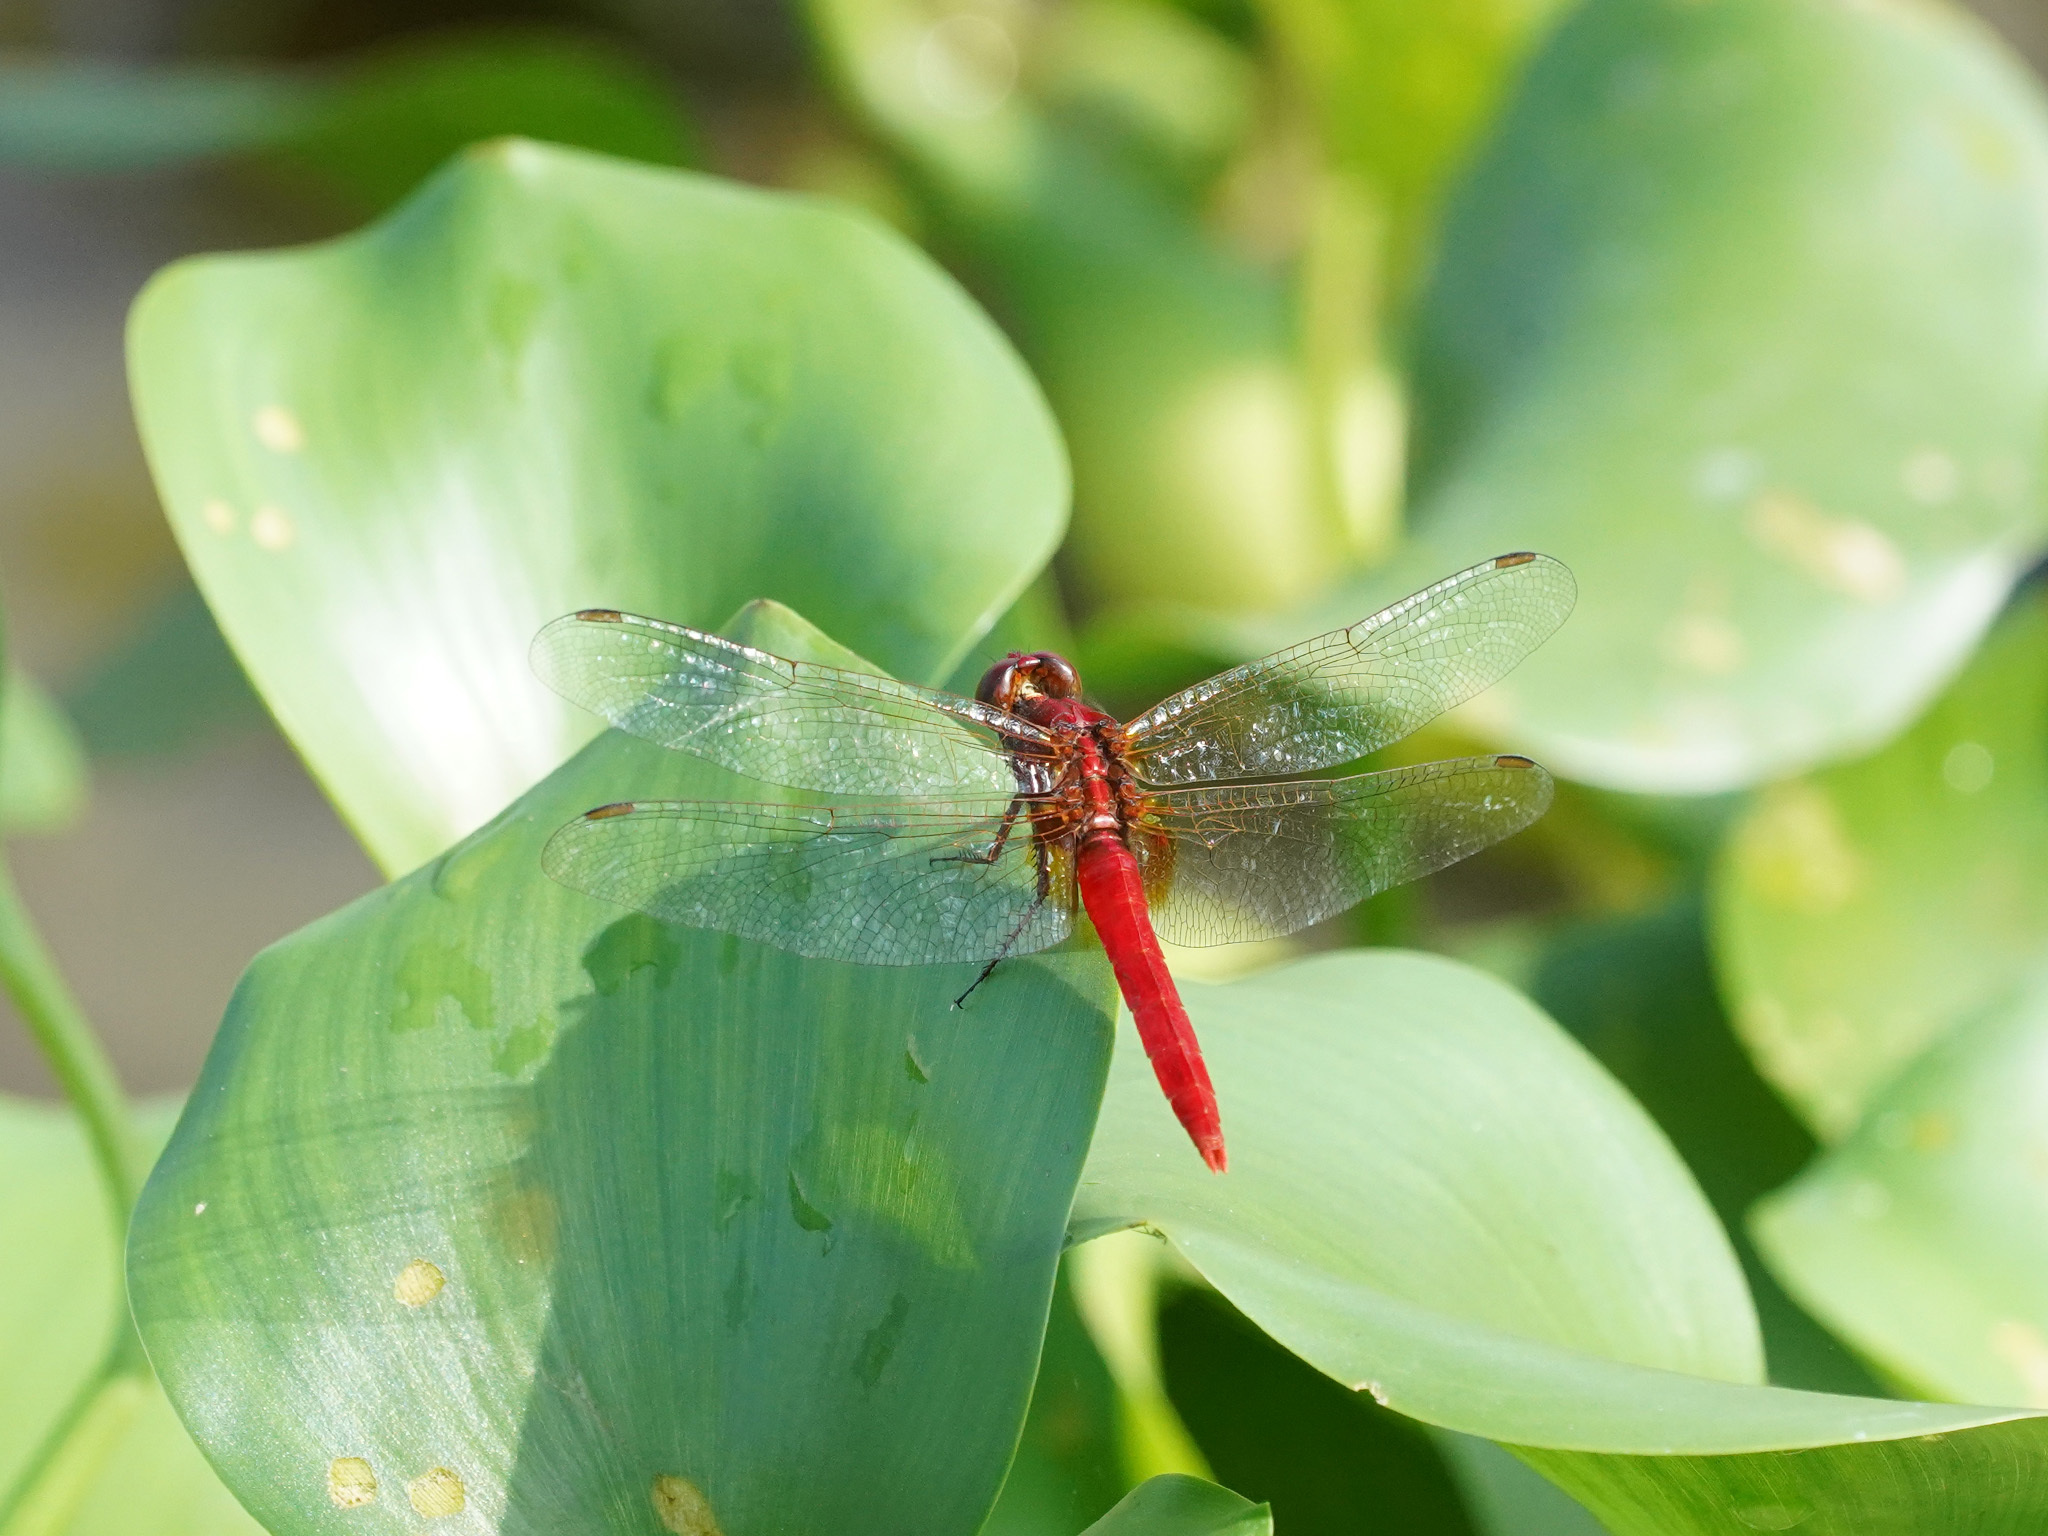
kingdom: Animalia
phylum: Arthropoda
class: Insecta
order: Odonata
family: Libellulidae
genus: Rhodothemis
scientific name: Rhodothemis rufa
